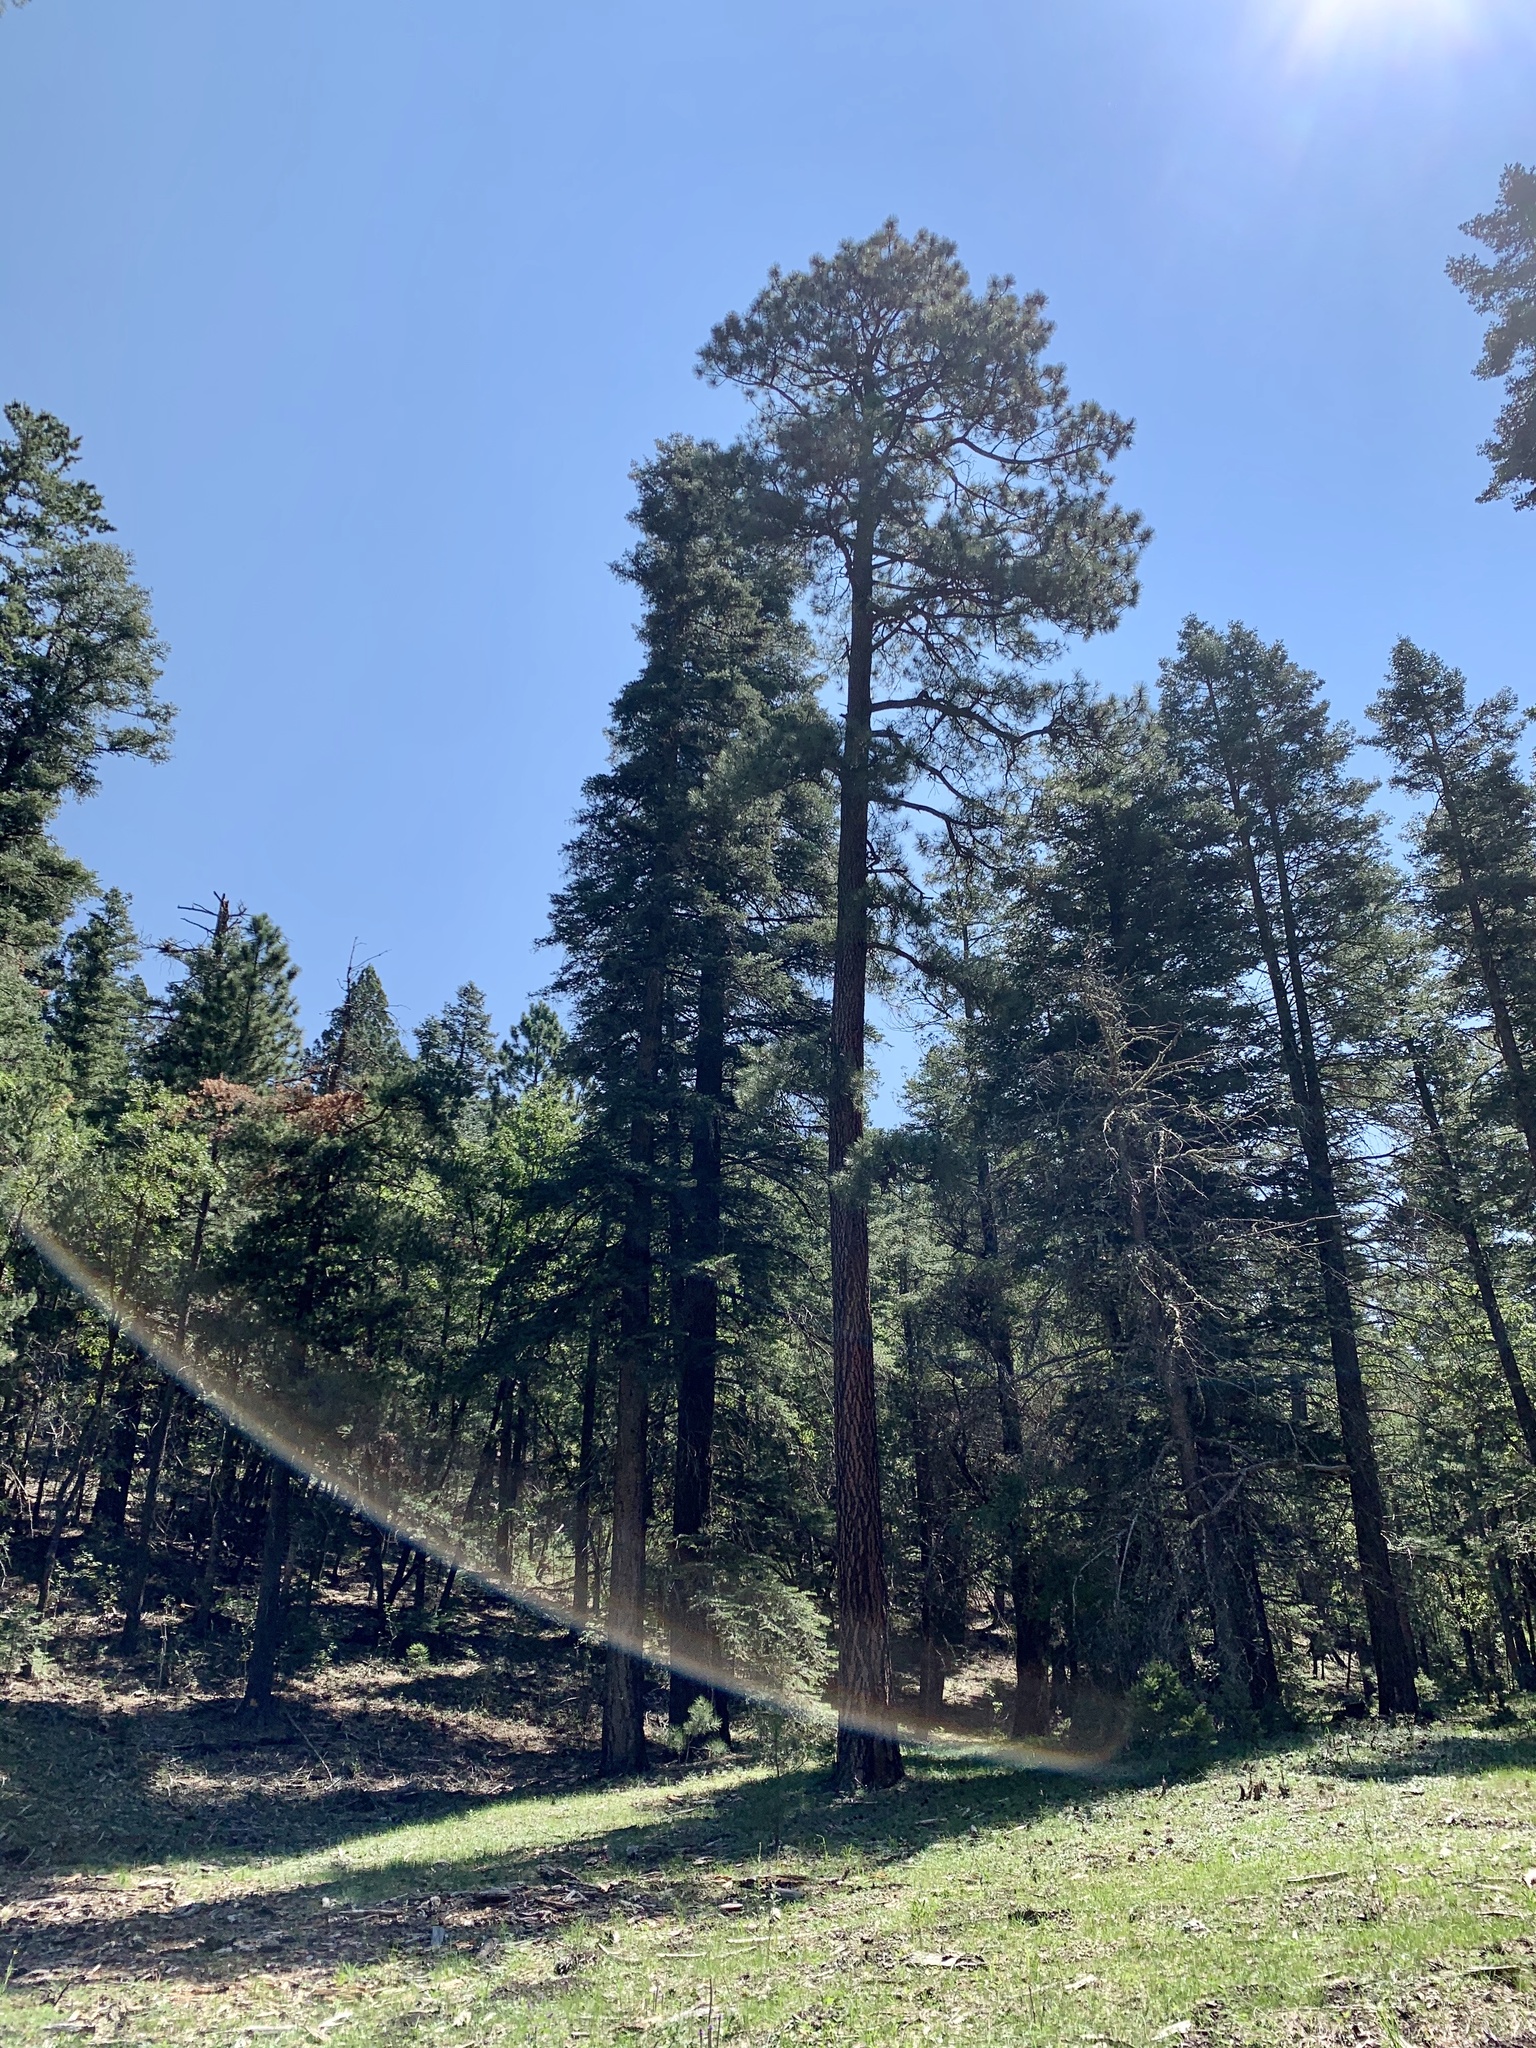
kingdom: Plantae
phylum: Tracheophyta
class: Pinopsida
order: Pinales
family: Pinaceae
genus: Pinus
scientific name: Pinus ponderosa
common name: Western yellow-pine
